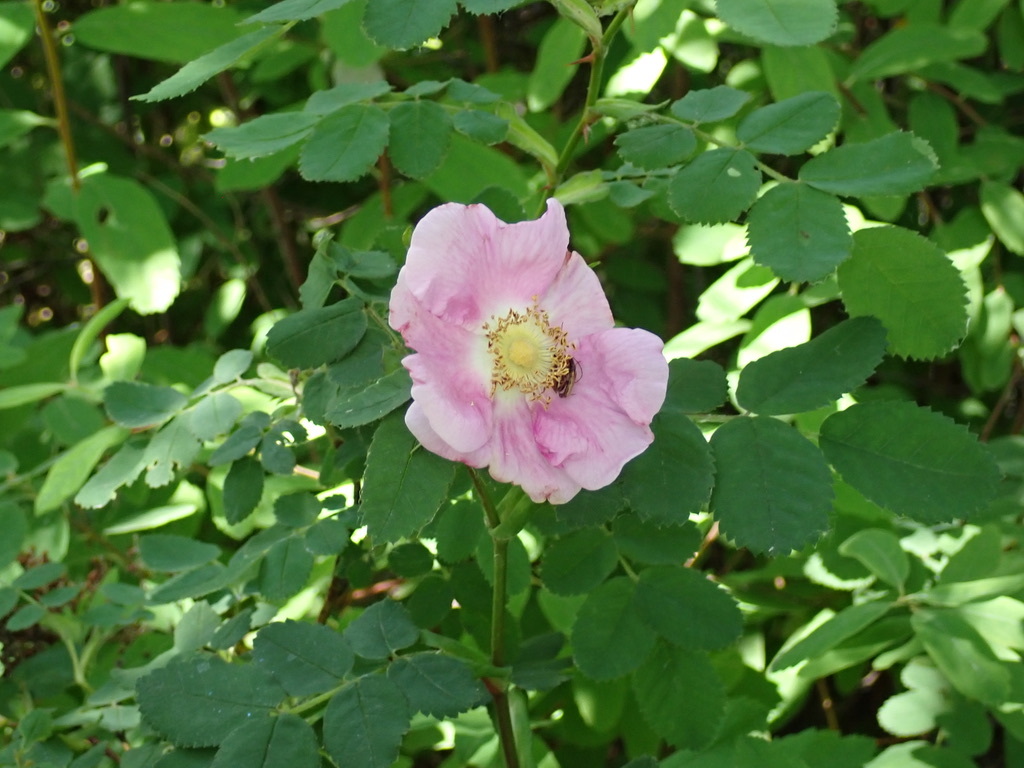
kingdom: Plantae
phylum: Tracheophyta
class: Magnoliopsida
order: Rosales
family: Rosaceae
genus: Rosa
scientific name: Rosa nutkana
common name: Nootka rose
